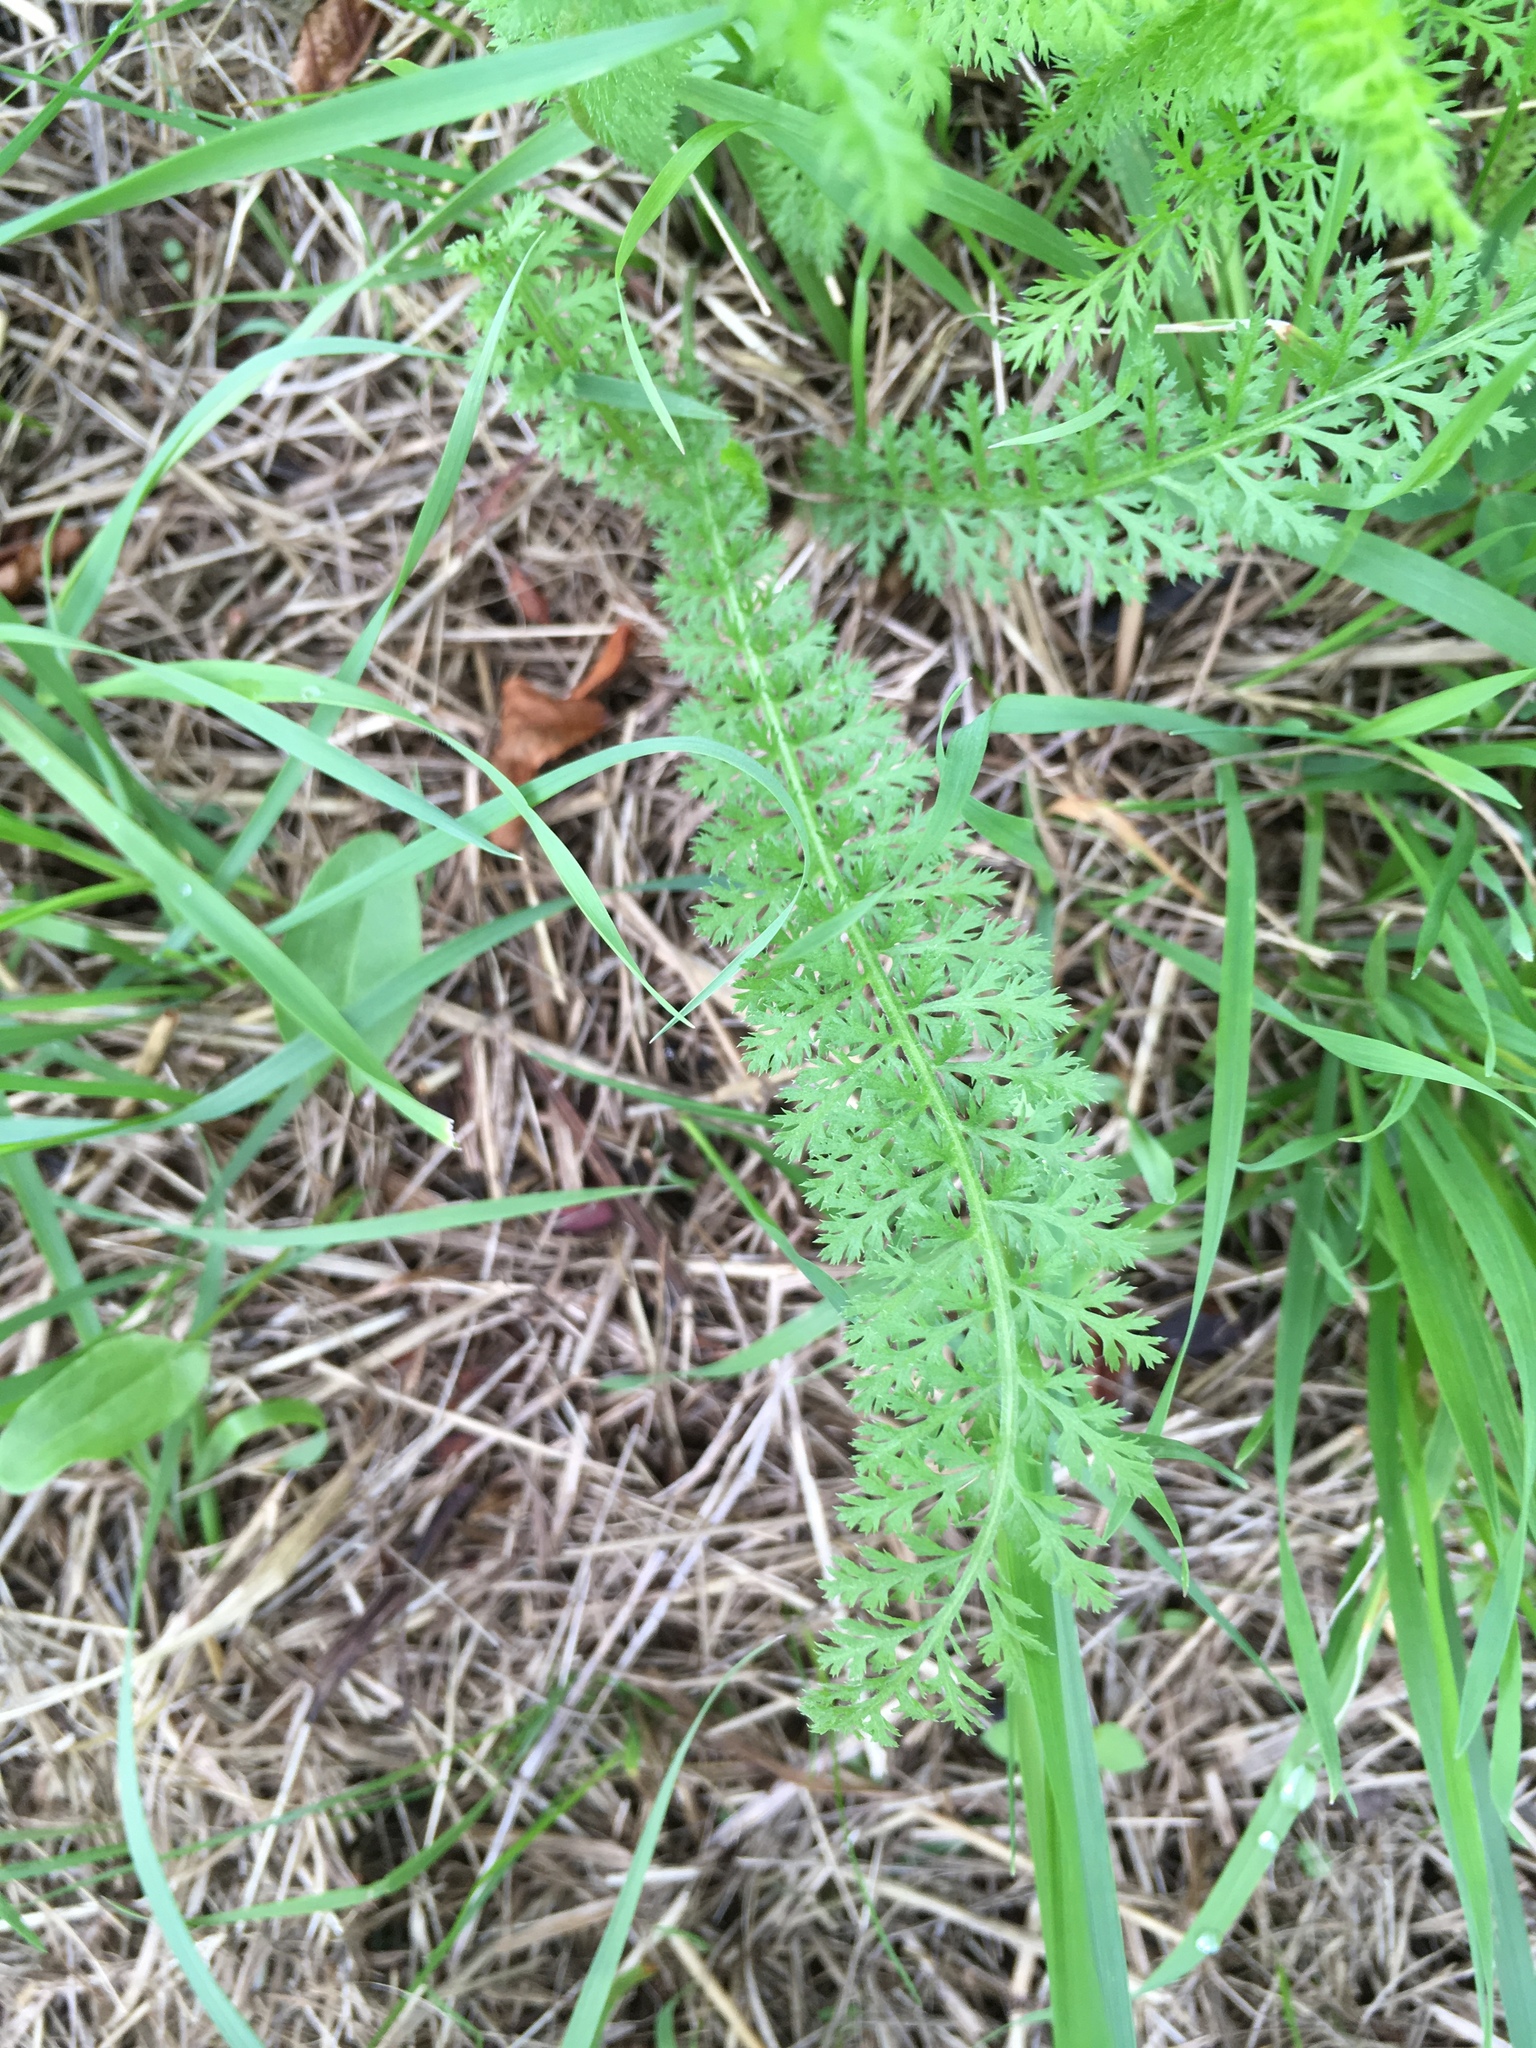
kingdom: Plantae
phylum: Tracheophyta
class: Magnoliopsida
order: Asterales
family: Asteraceae
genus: Achillea
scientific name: Achillea millefolium
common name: Yarrow
